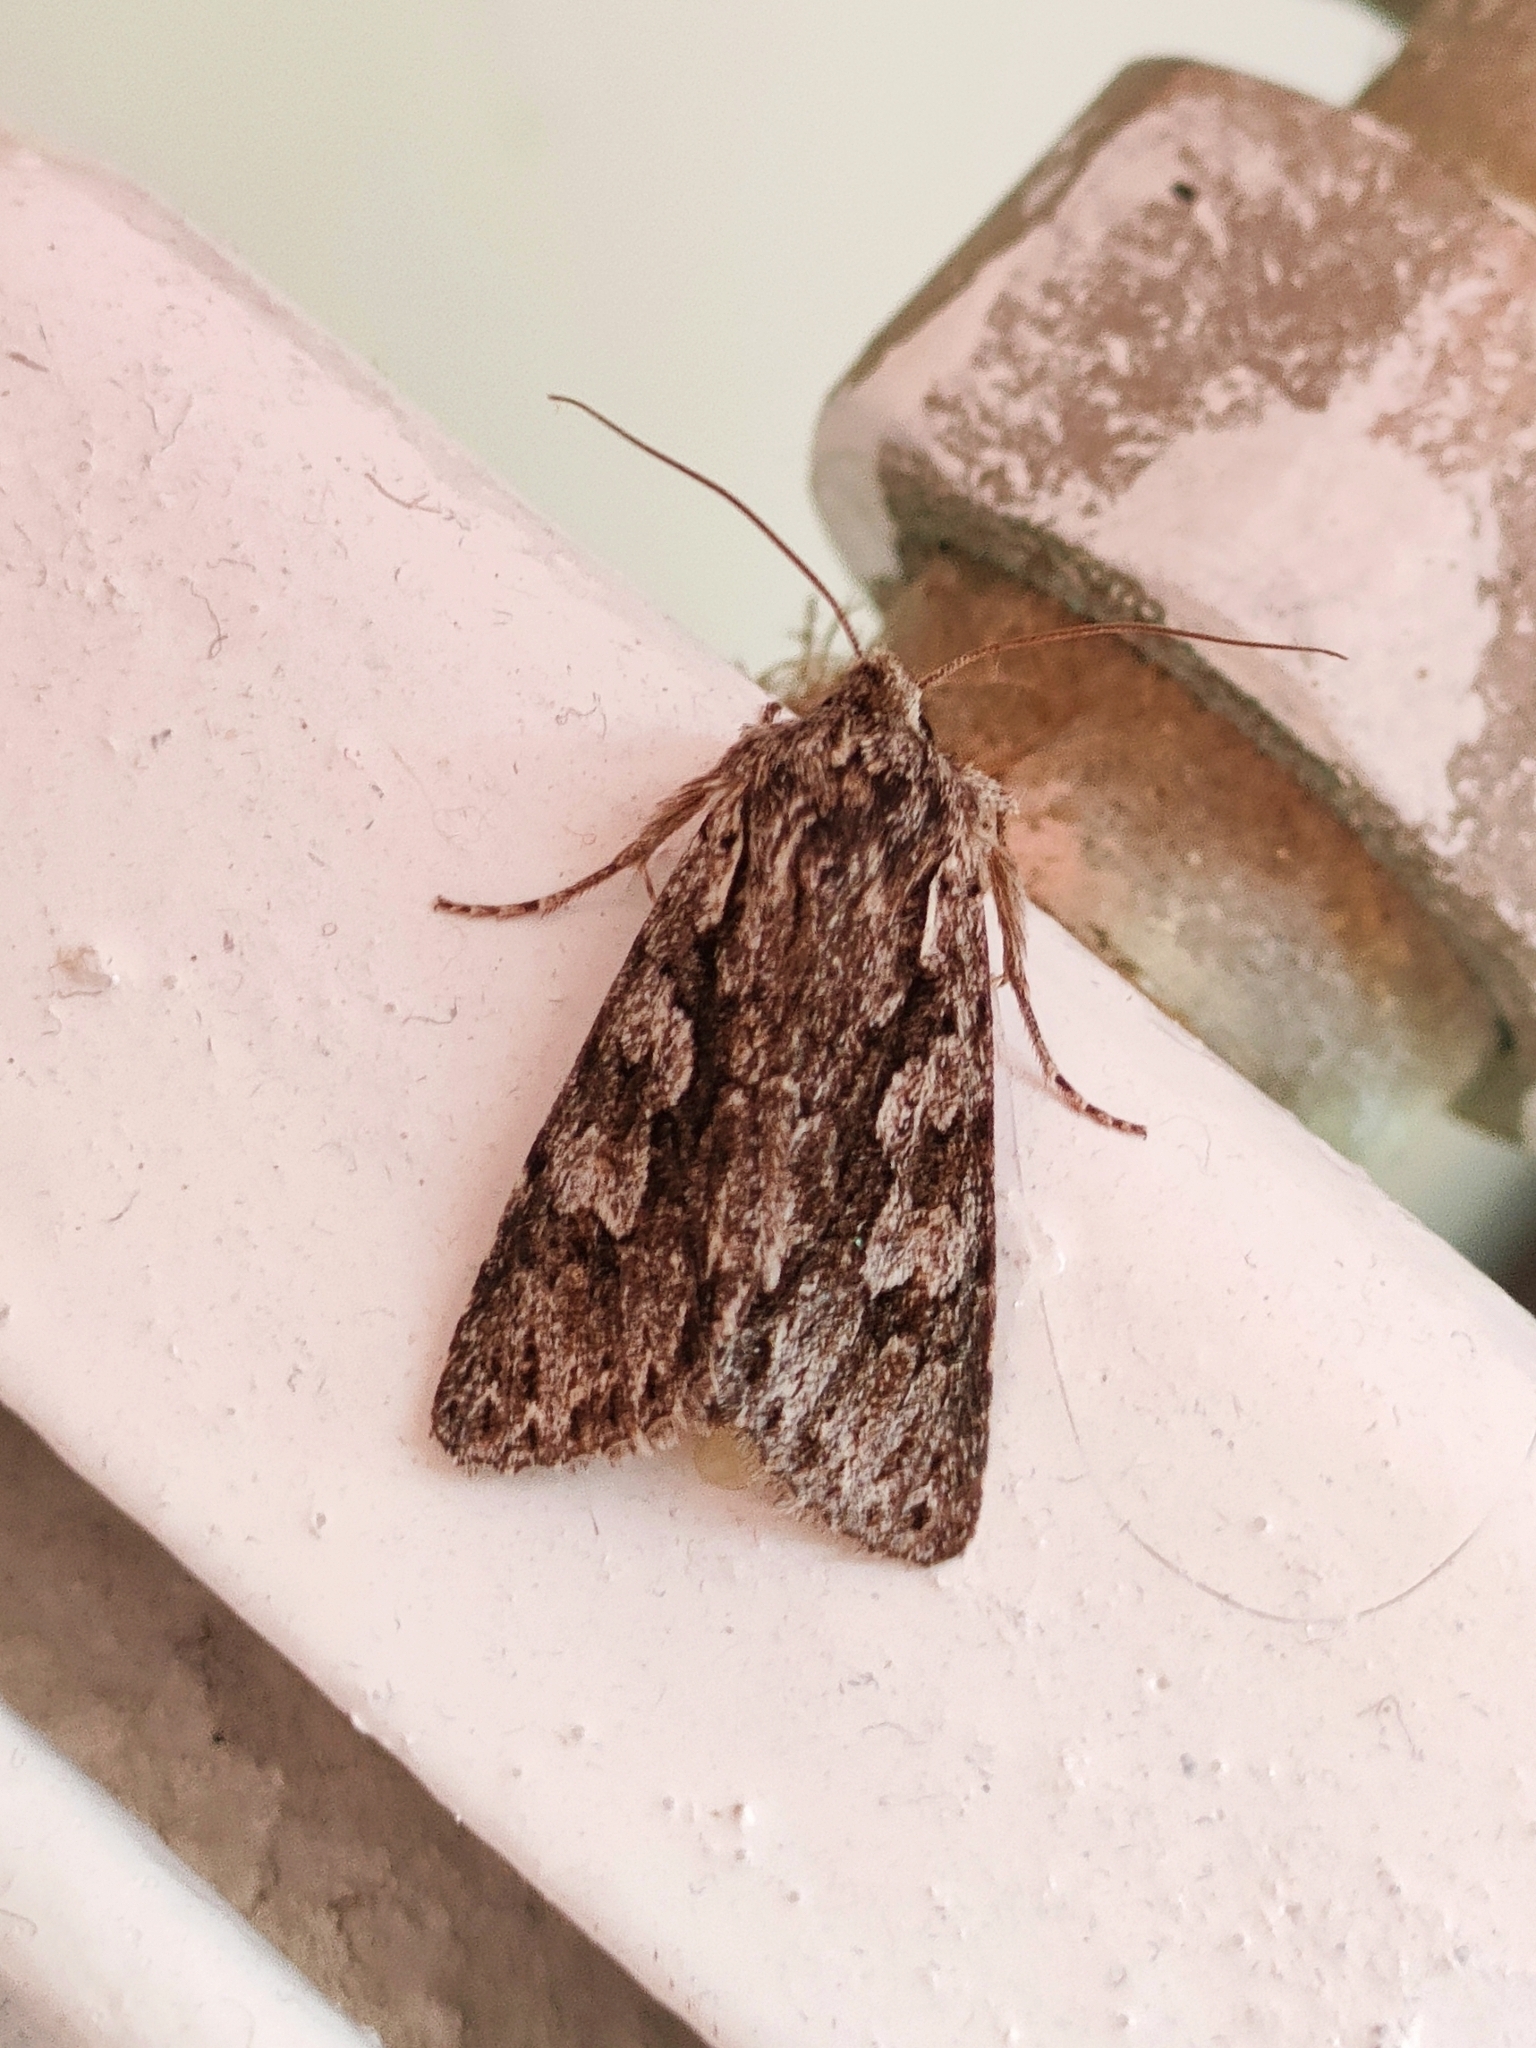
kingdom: Animalia
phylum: Arthropoda
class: Insecta
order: Lepidoptera
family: Noctuidae
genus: Xylocampa
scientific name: Xylocampa areola
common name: Early grey
